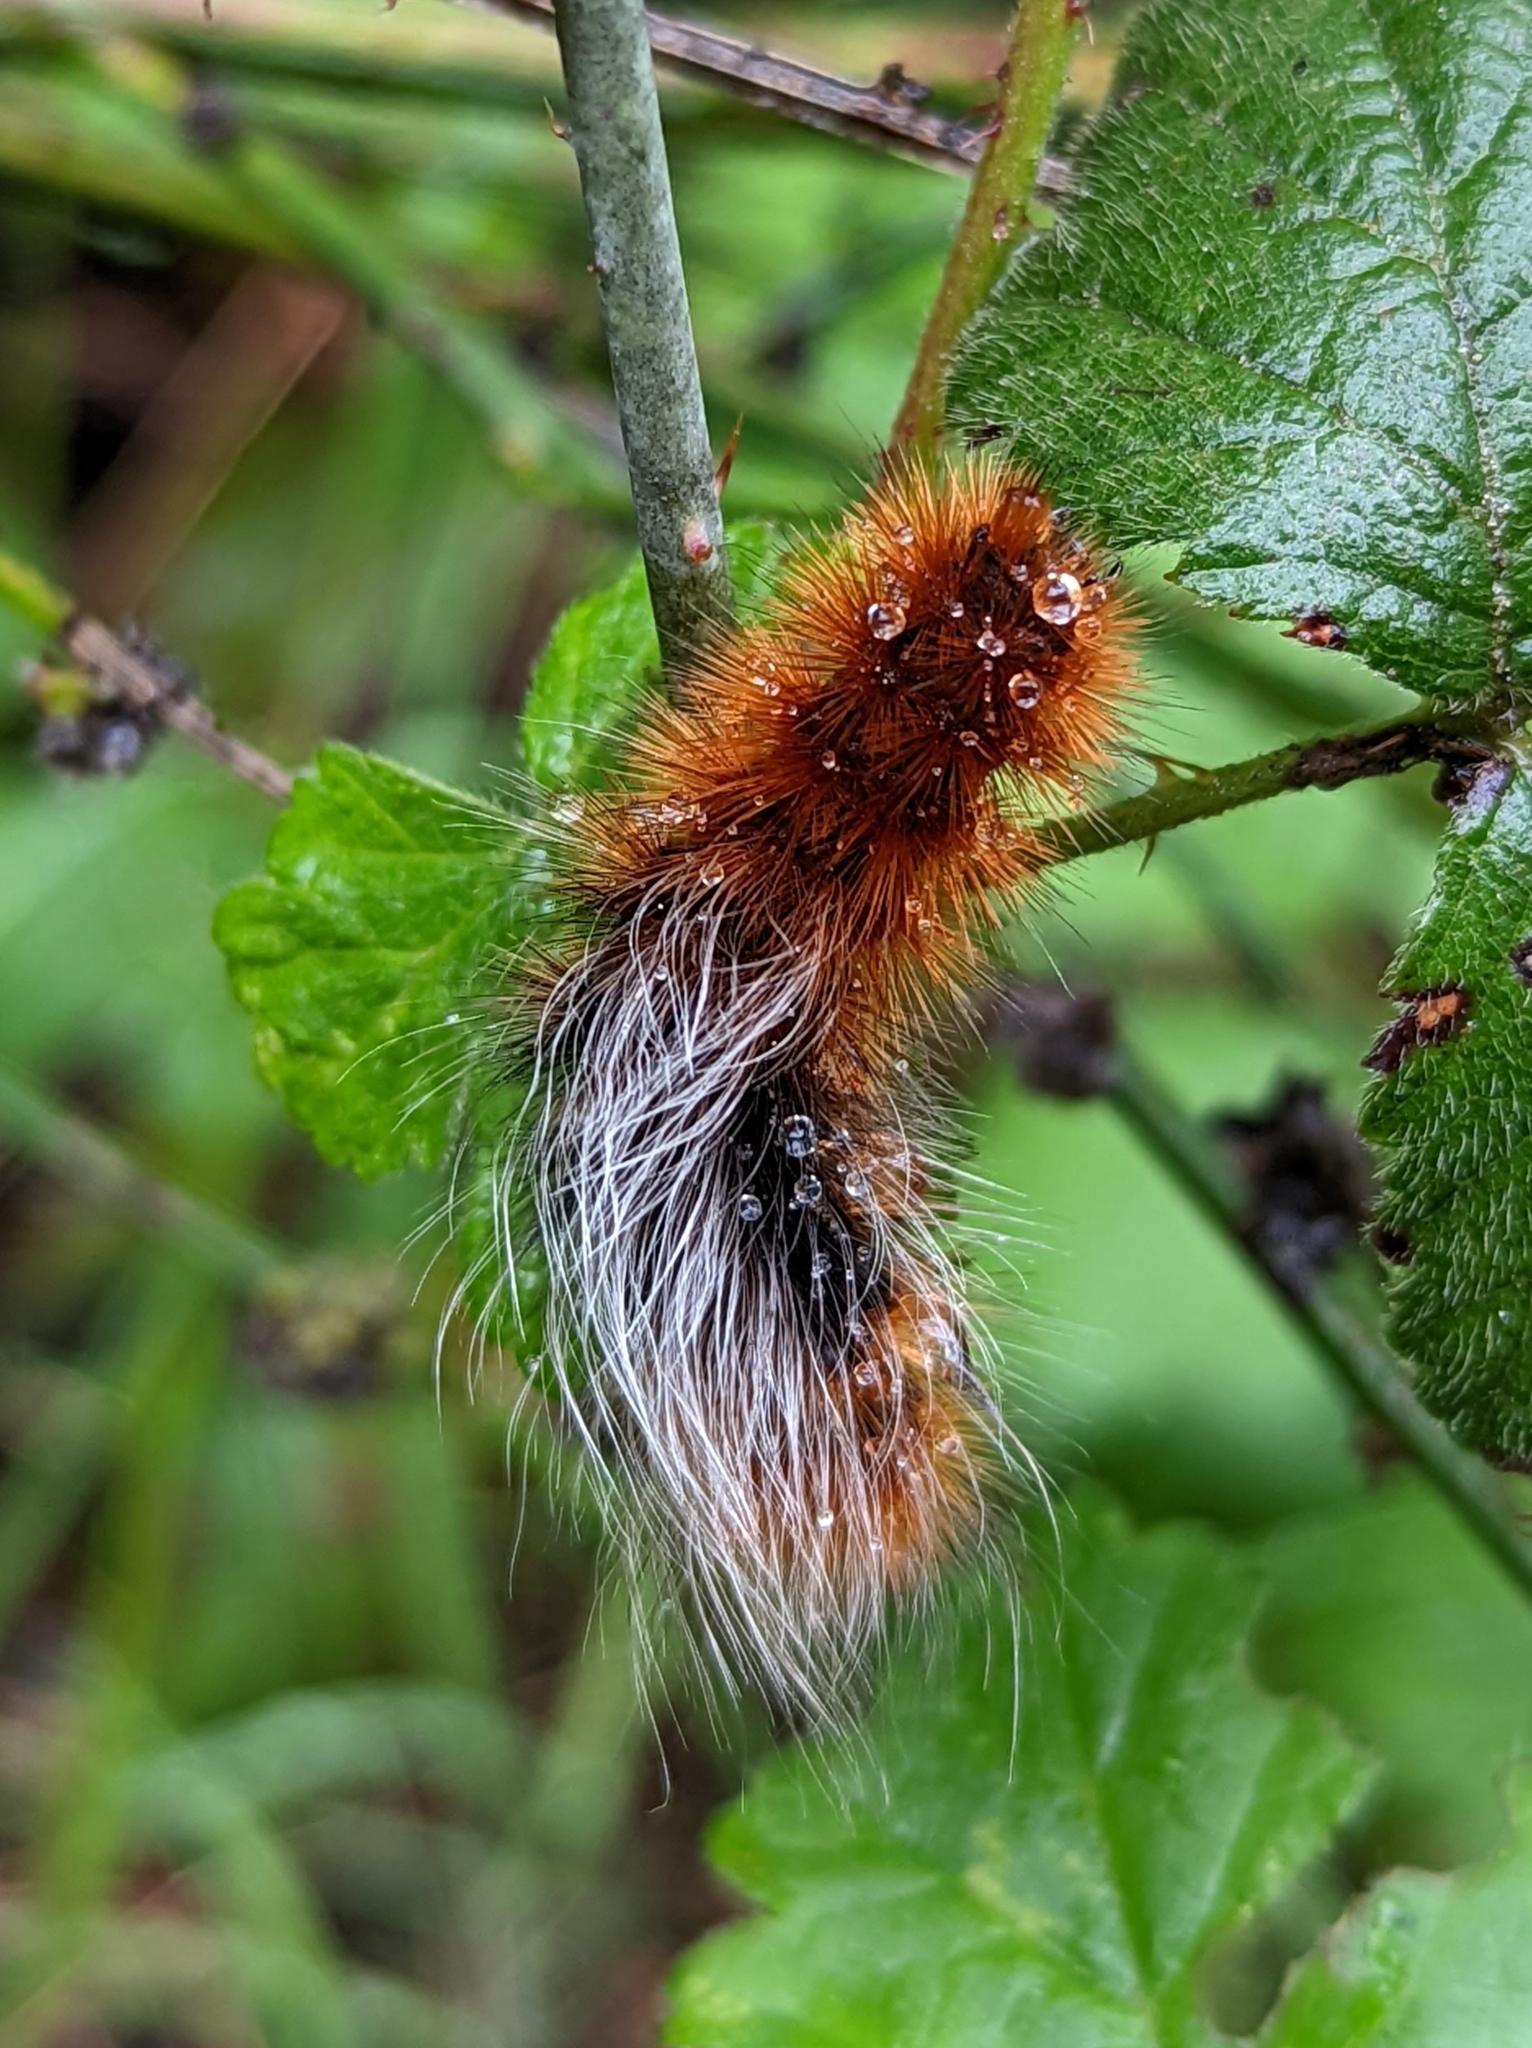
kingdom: Animalia
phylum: Arthropoda
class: Insecta
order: Lepidoptera
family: Erebidae
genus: Arctia
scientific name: Arctia tigrina
